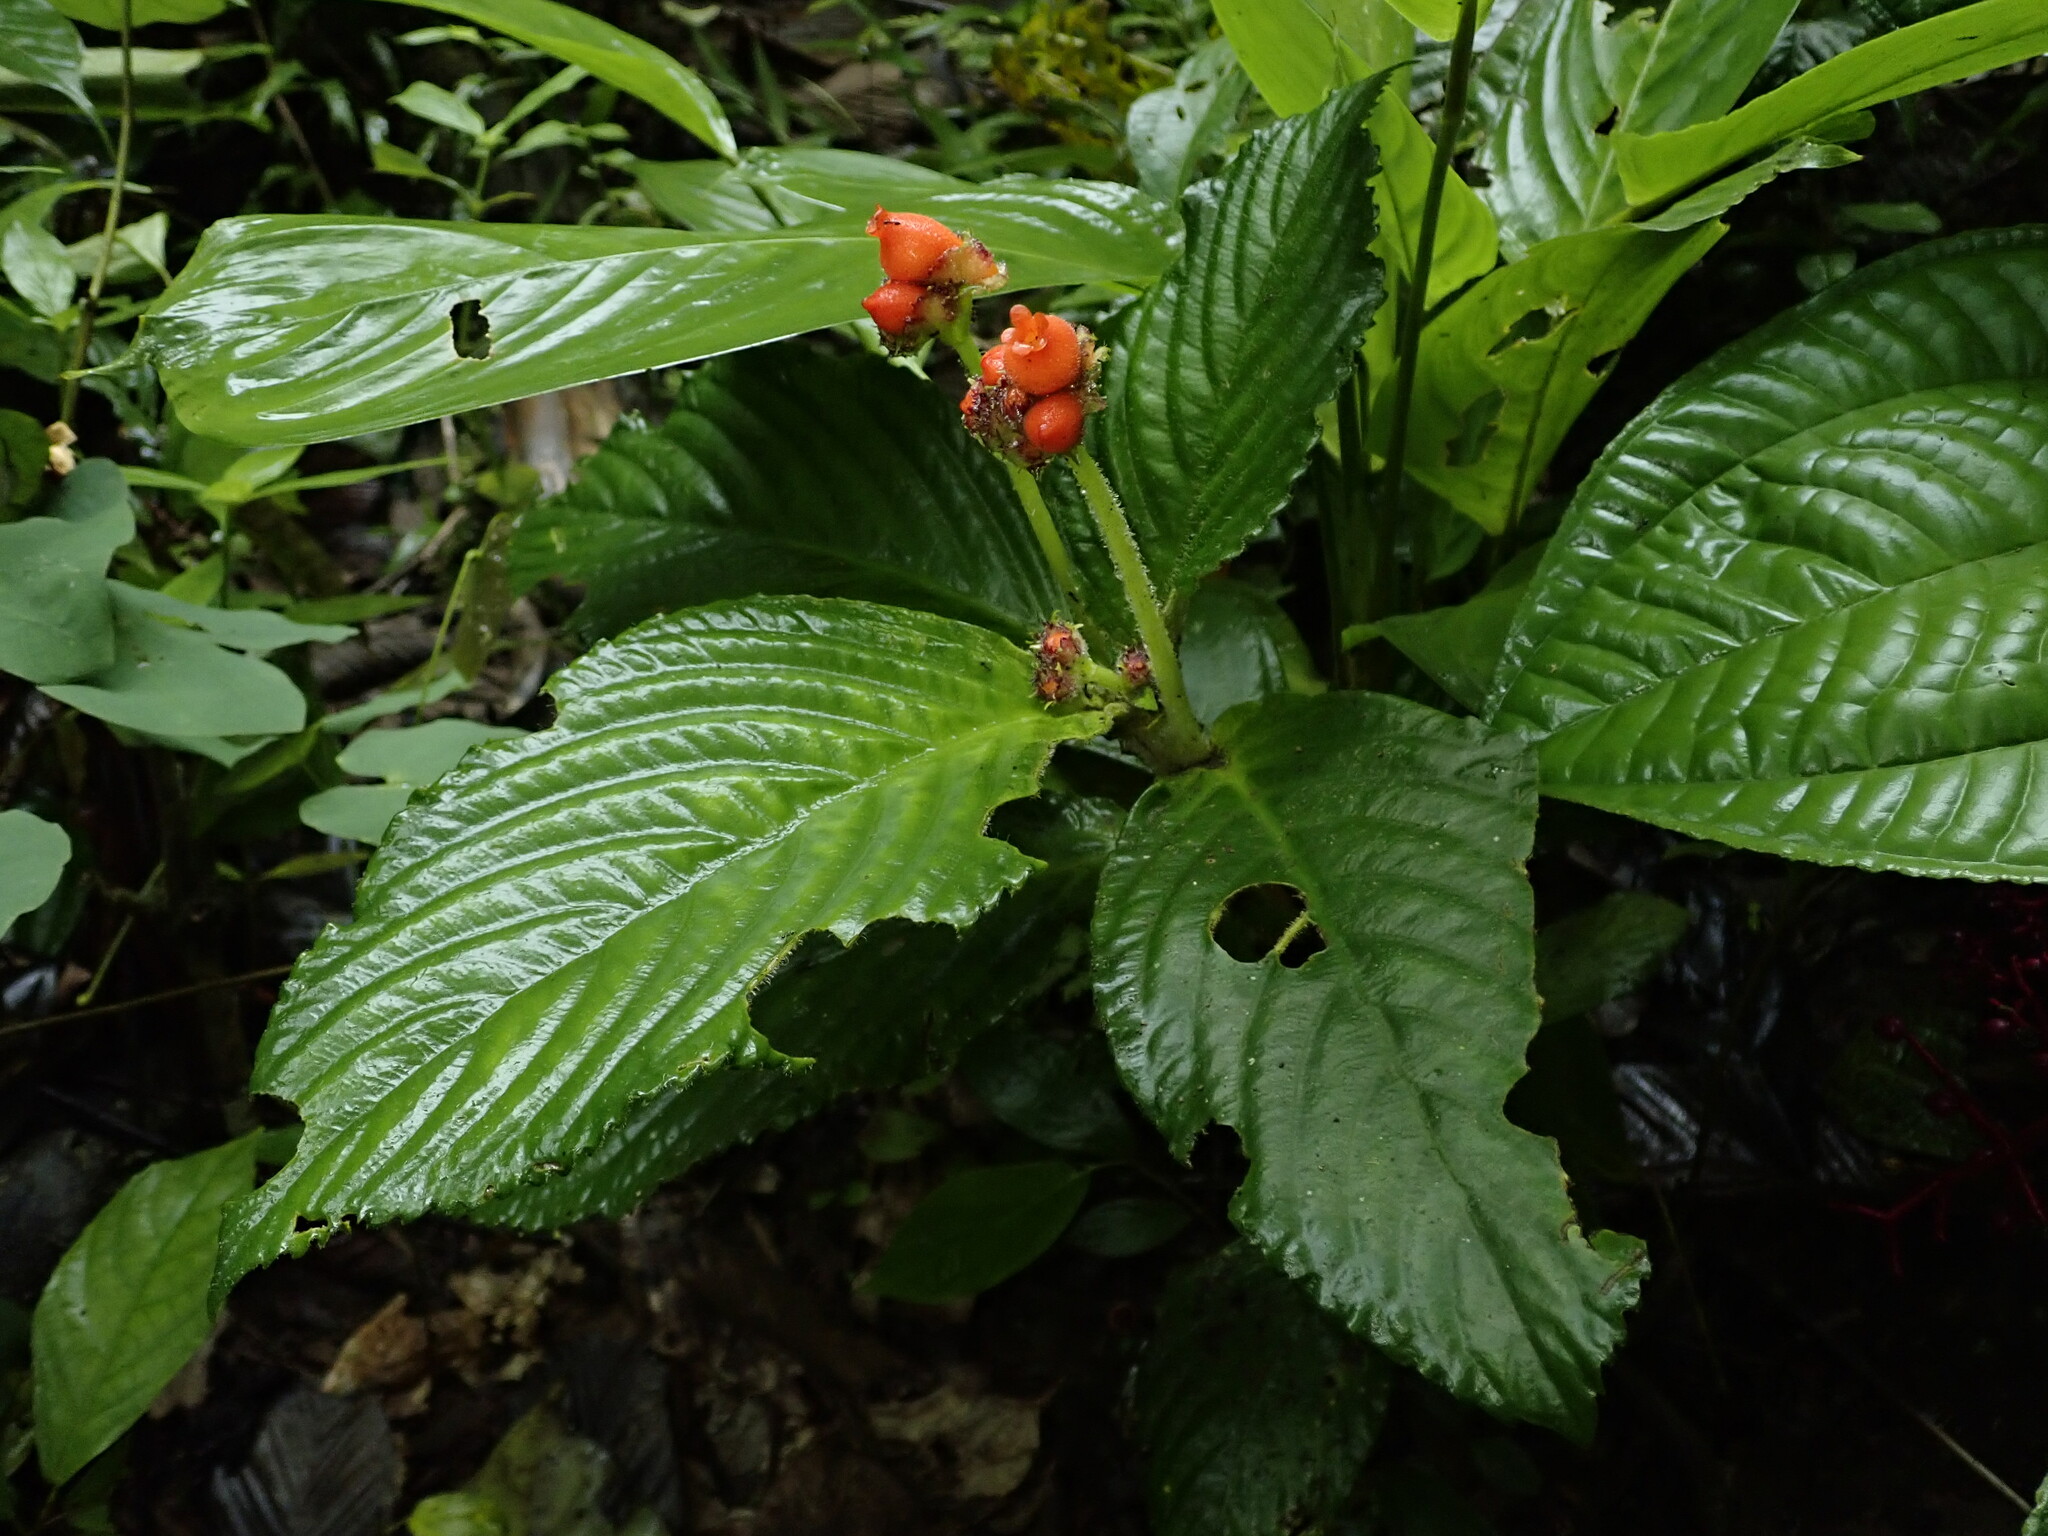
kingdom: Plantae
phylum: Tracheophyta
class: Magnoliopsida
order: Lamiales
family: Gesneriaceae
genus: Gasteranthus
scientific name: Gasteranthus corallinus
